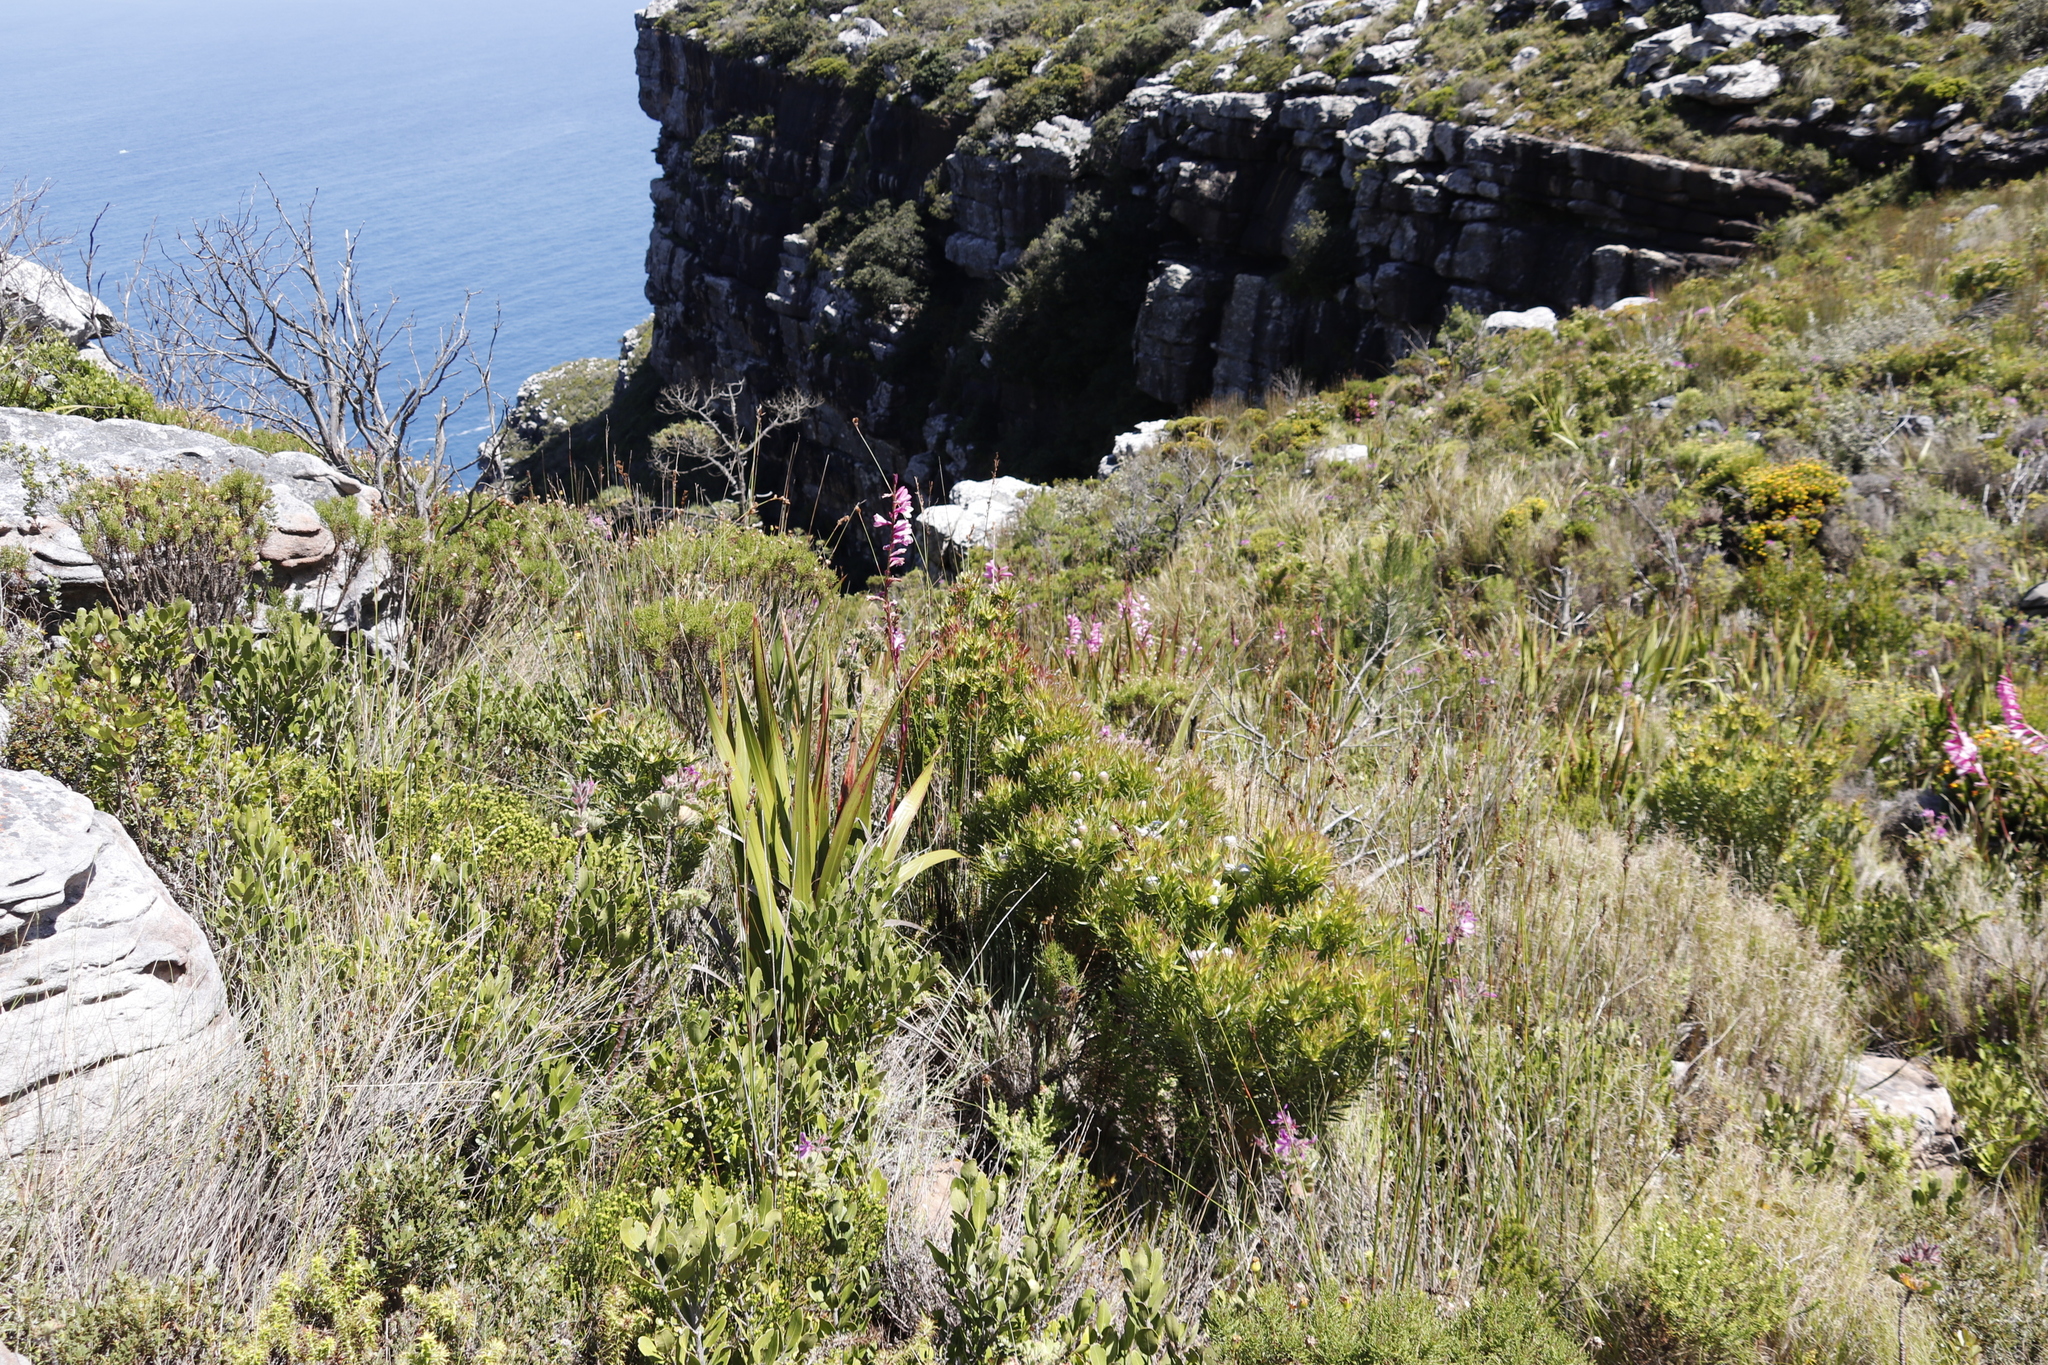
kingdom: Plantae
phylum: Tracheophyta
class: Magnoliopsida
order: Proteales
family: Proteaceae
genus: Leucadendron
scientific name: Leucadendron xanthoconus
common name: Sickle-leaf conebush
